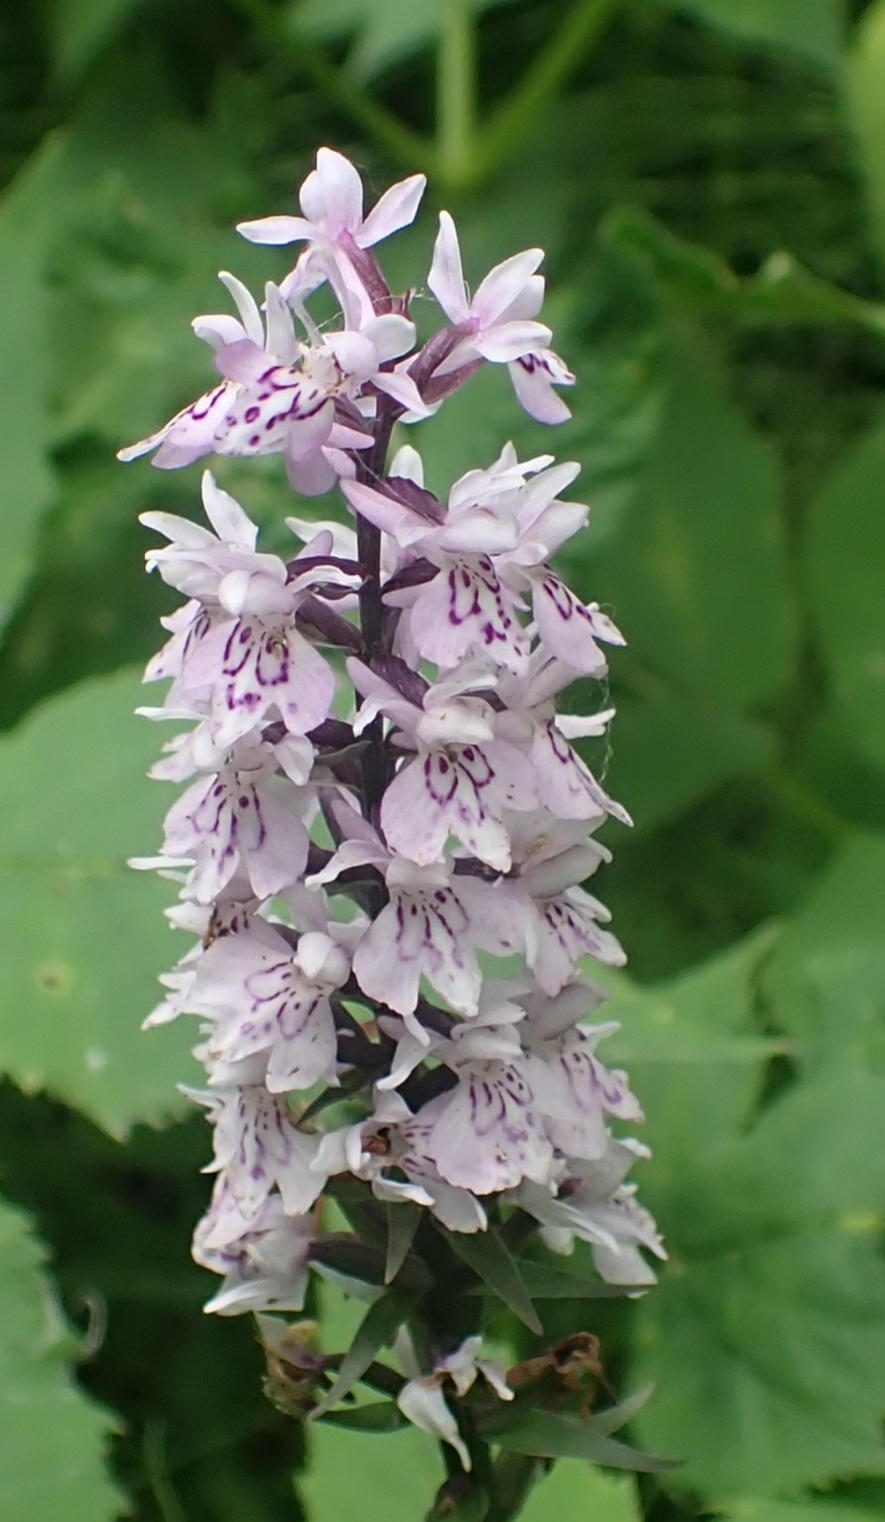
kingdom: Plantae
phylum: Tracheophyta
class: Liliopsida
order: Asparagales
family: Orchidaceae
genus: Dactylorhiza
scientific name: Dactylorhiza maculata
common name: Heath spotted-orchid
